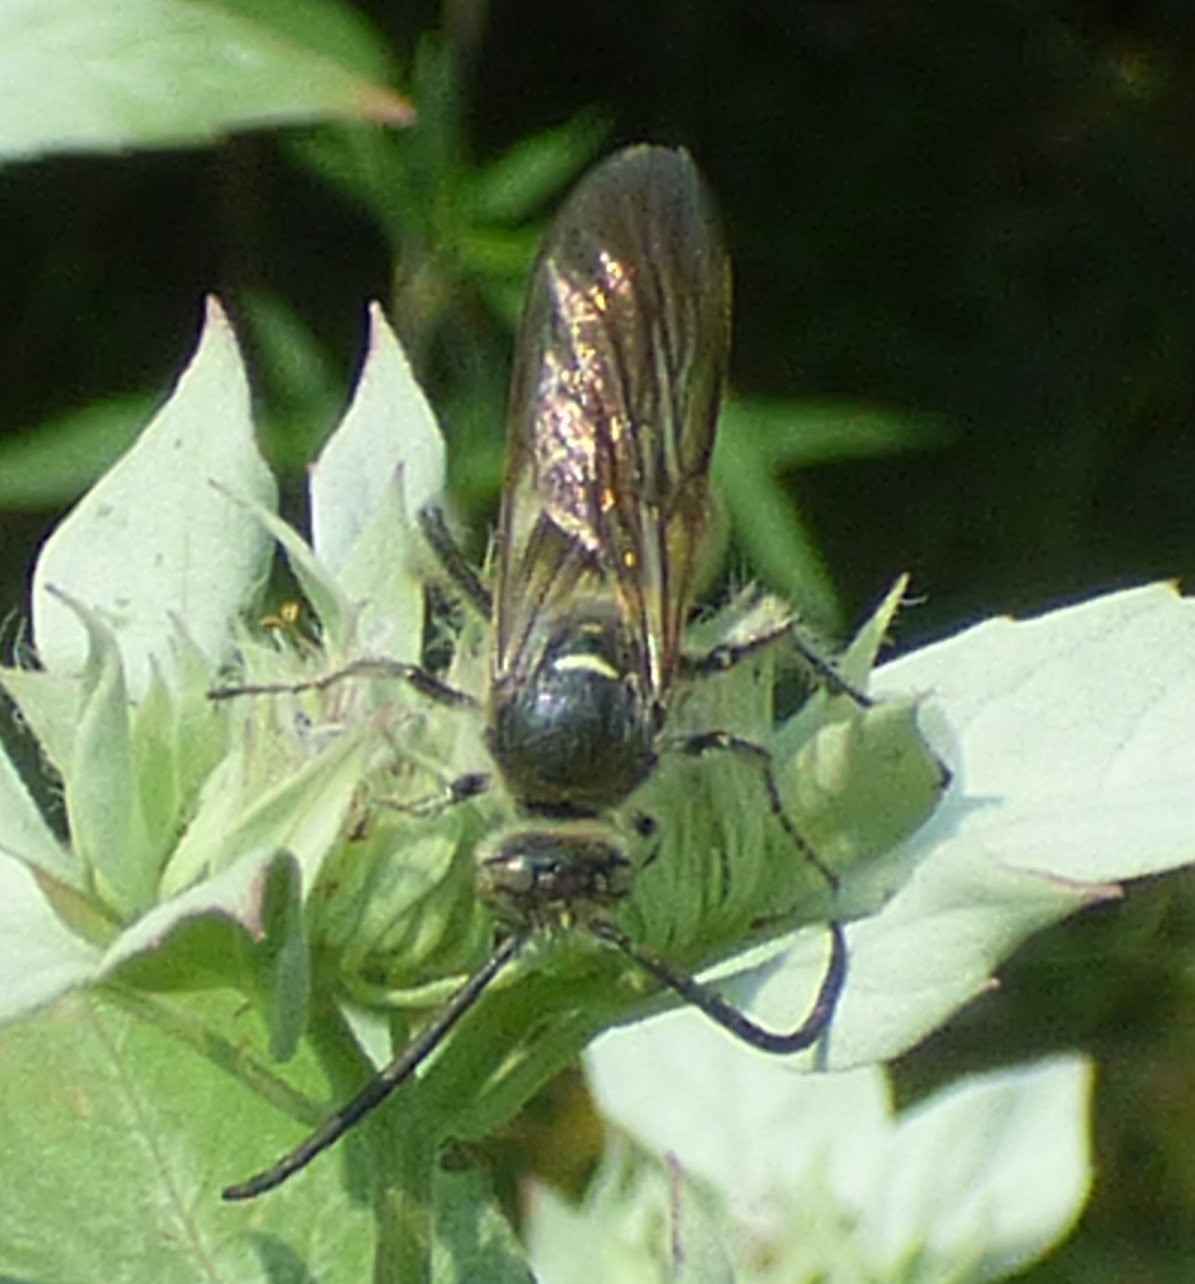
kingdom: Animalia
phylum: Arthropoda
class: Insecta
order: Hymenoptera
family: Scoliidae
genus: Dielis
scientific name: Dielis
